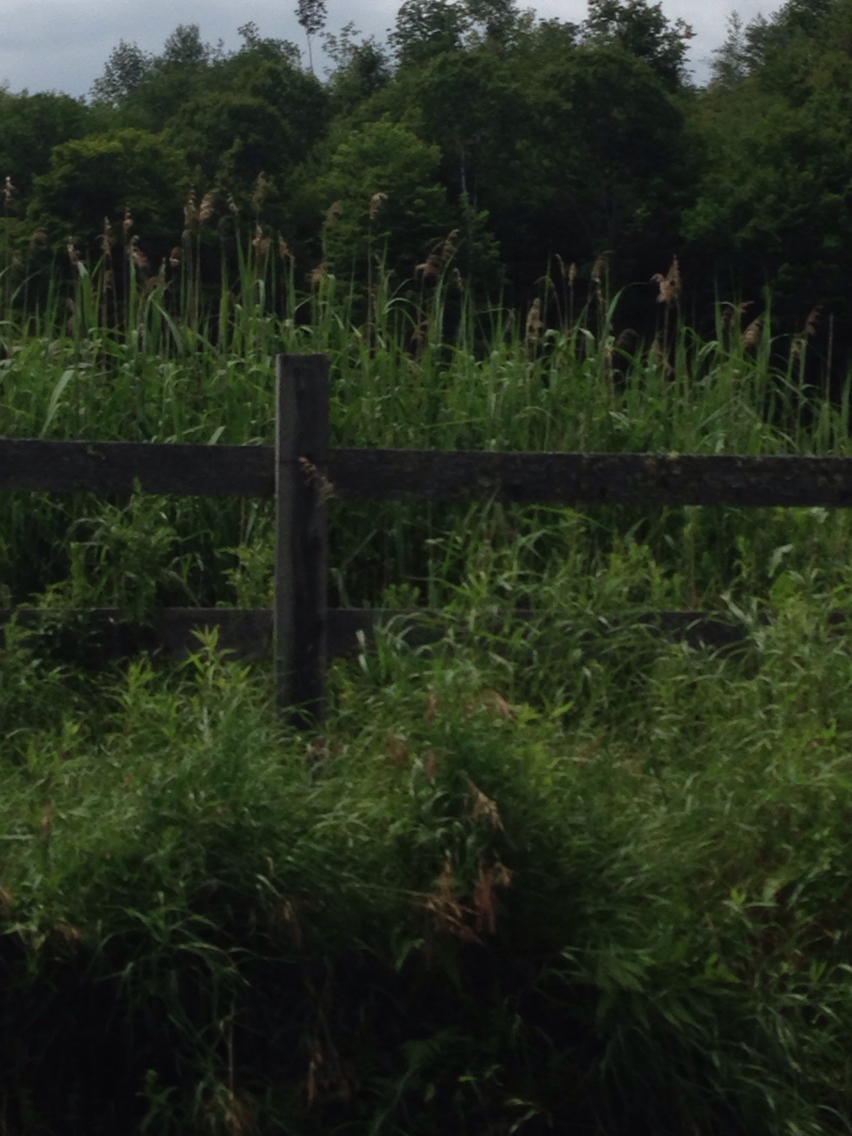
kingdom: Plantae
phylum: Tracheophyta
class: Liliopsida
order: Poales
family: Poaceae
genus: Phragmites
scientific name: Phragmites australis
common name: Common reed
